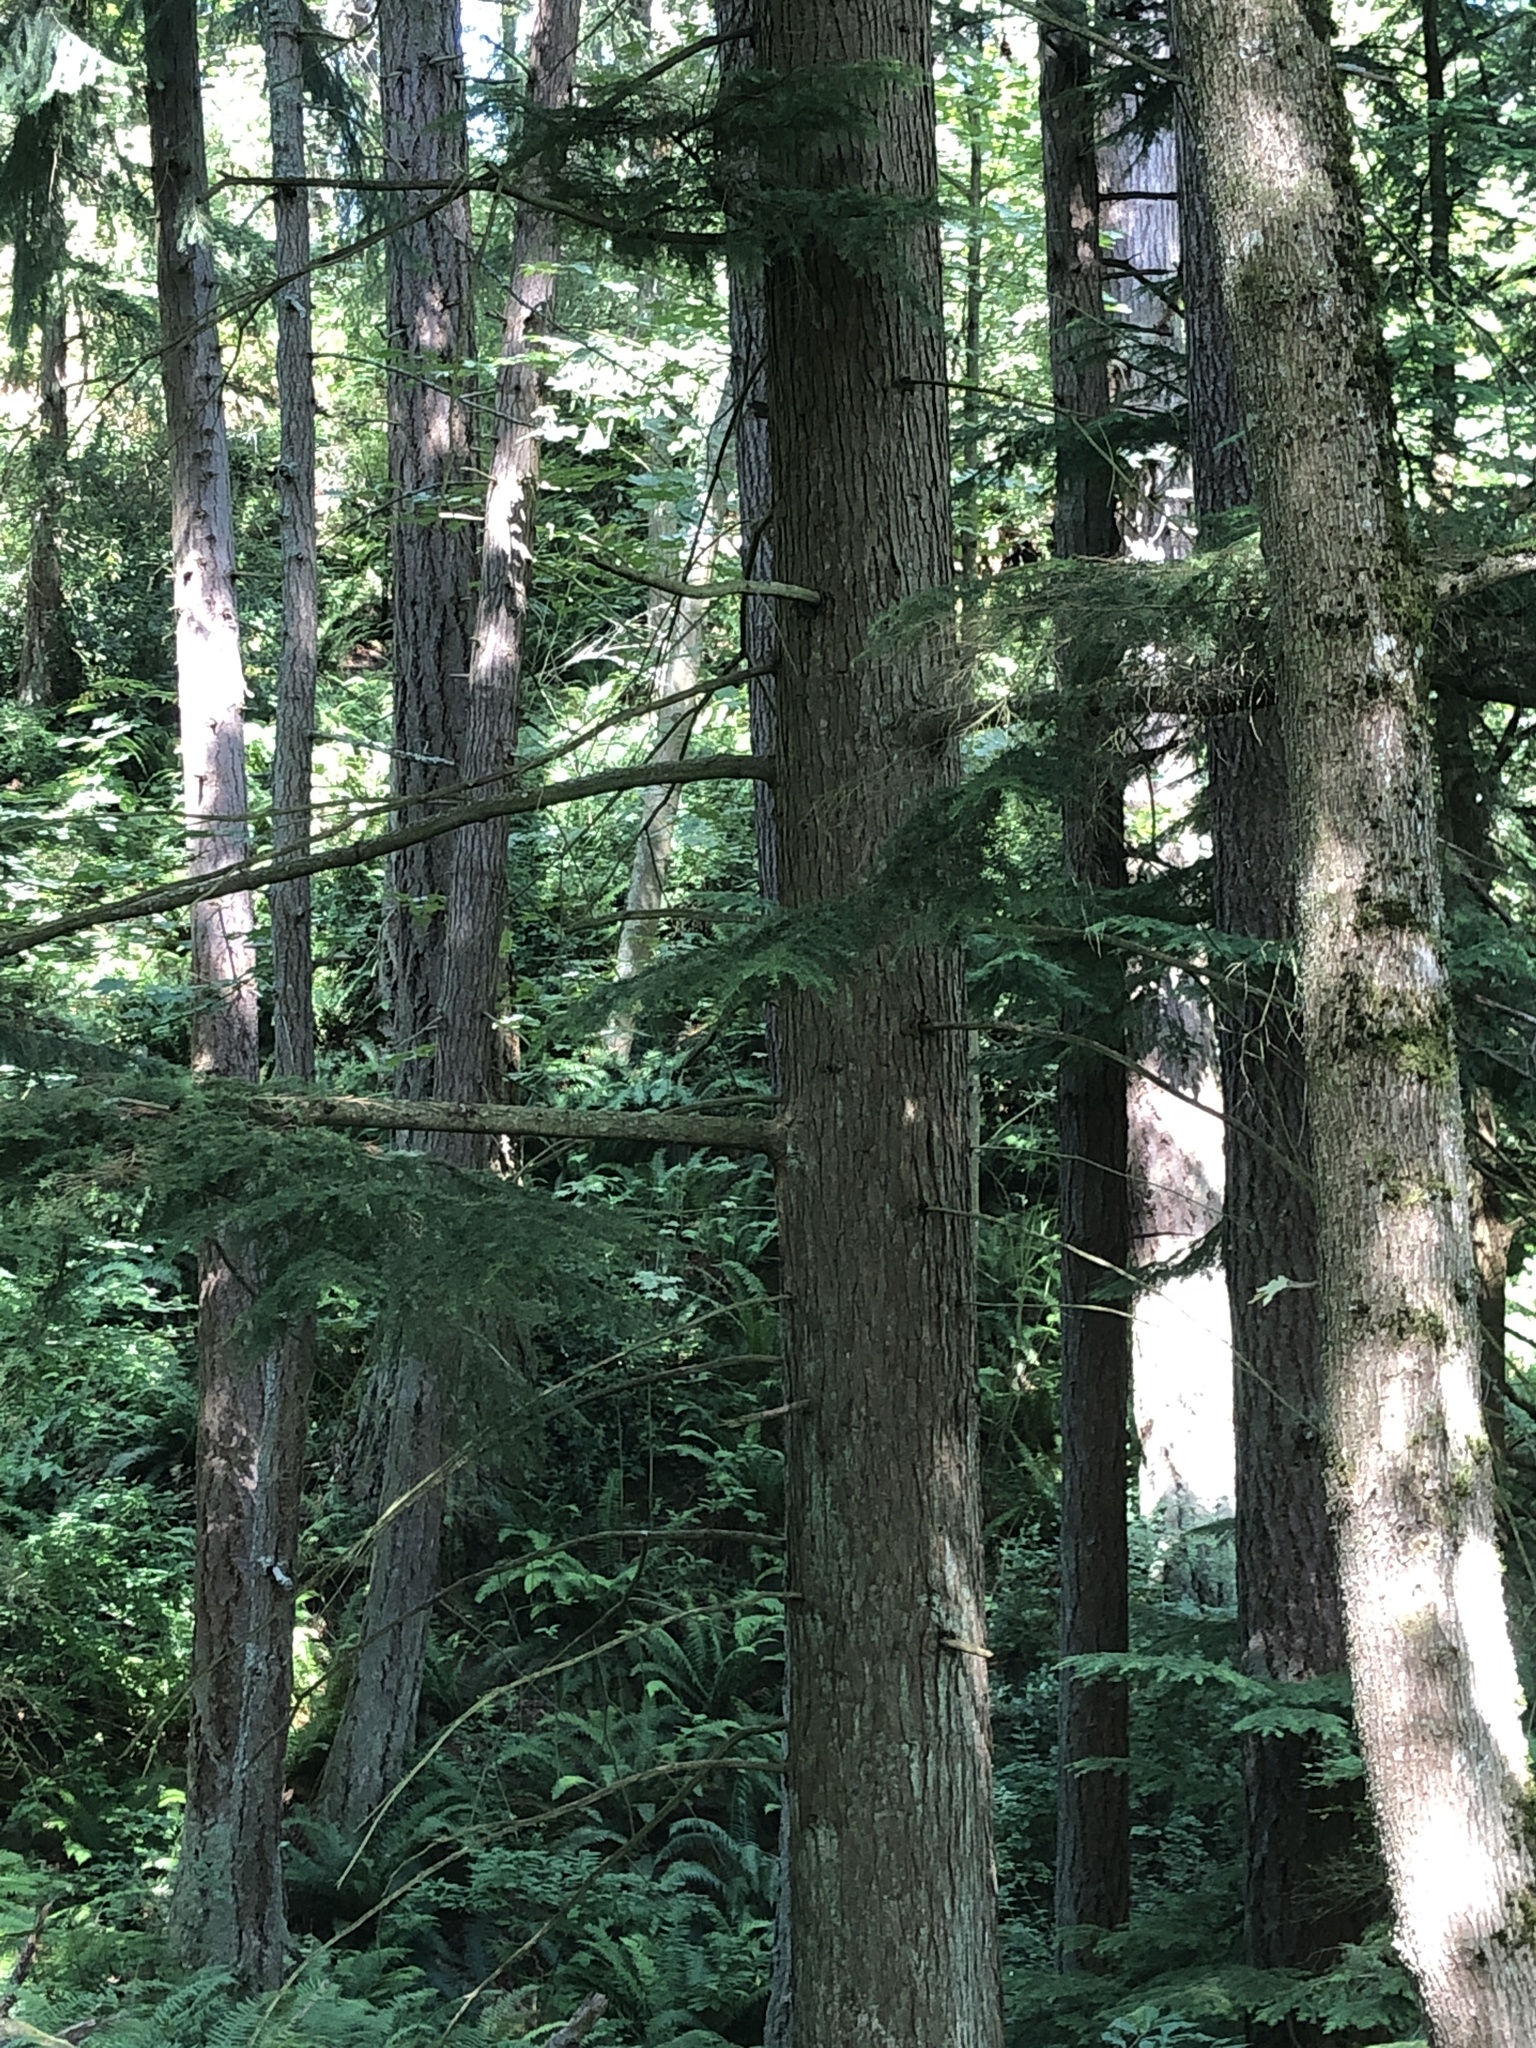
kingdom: Plantae
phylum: Tracheophyta
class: Pinopsida
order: Pinales
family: Pinaceae
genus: Tsuga
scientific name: Tsuga heterophylla
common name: Western hemlock
